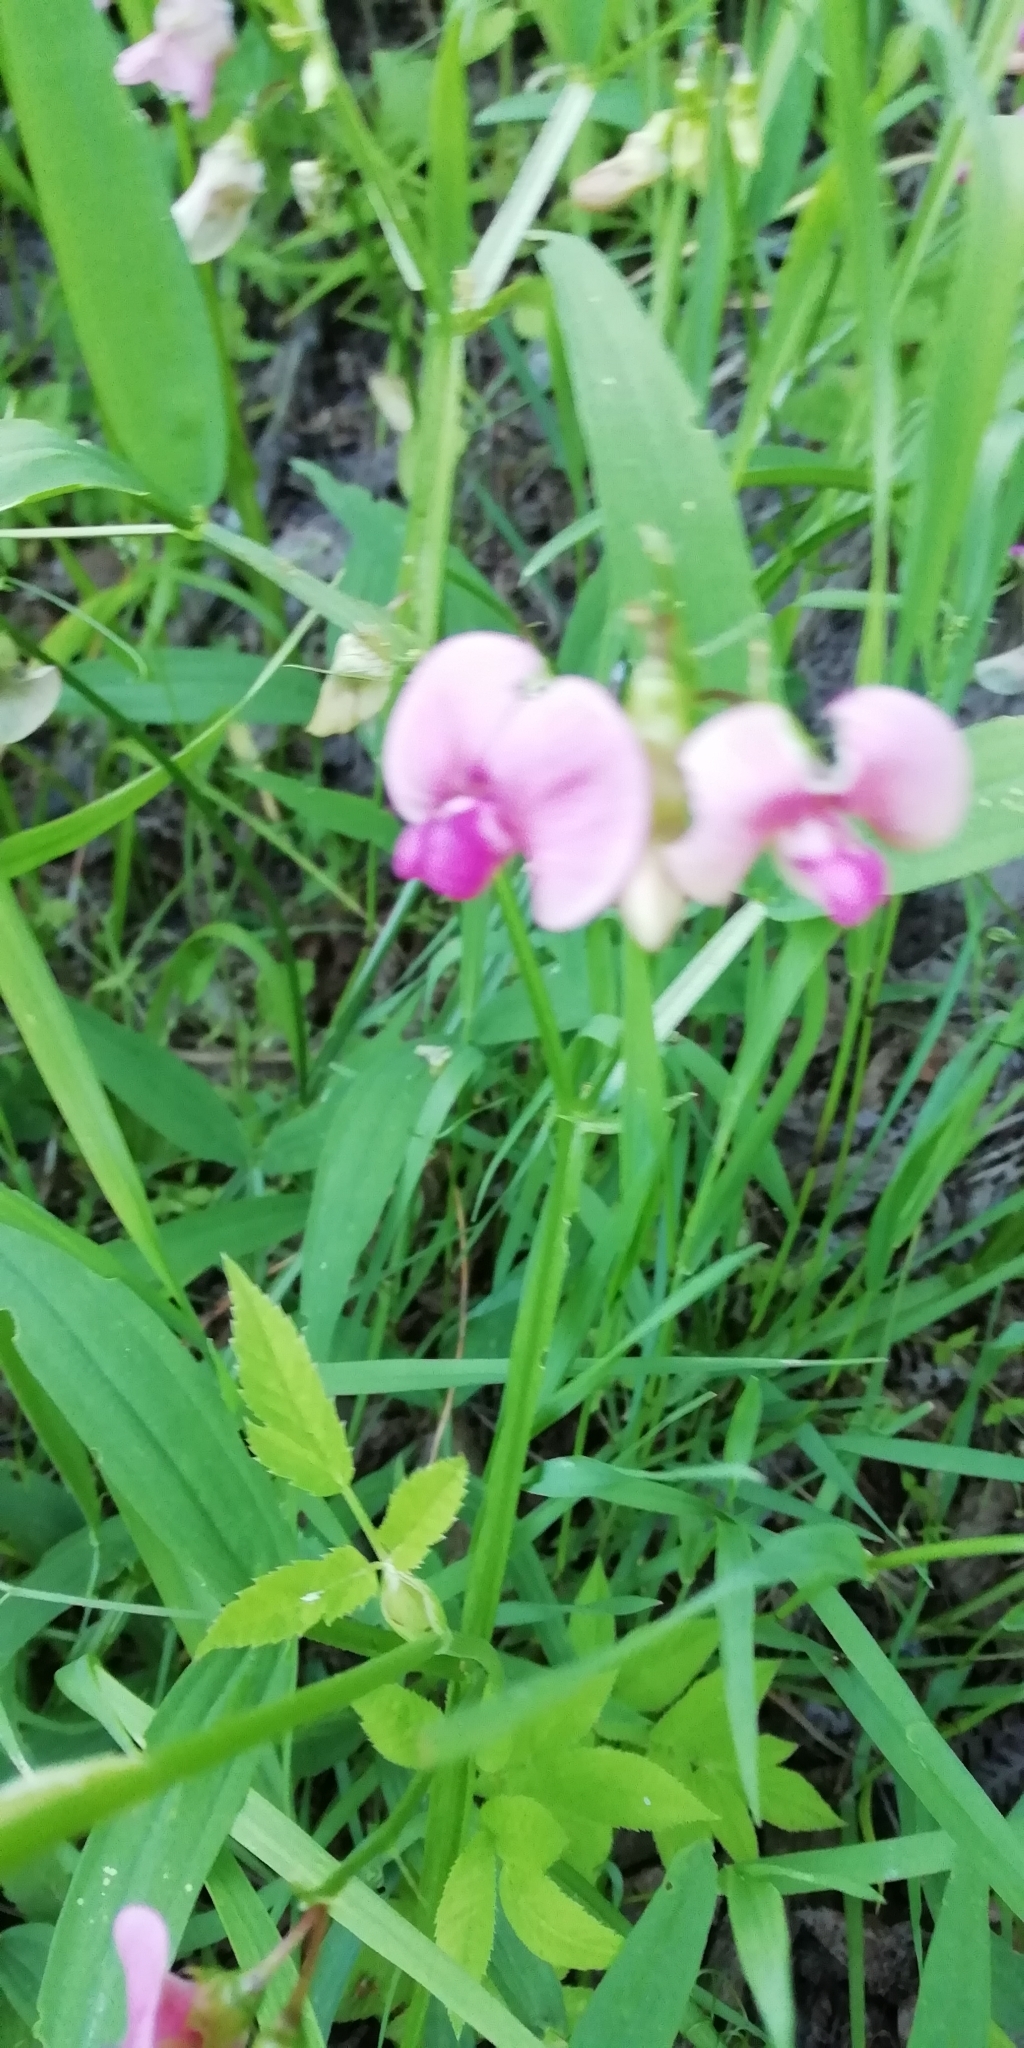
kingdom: Plantae
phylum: Tracheophyta
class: Magnoliopsida
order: Fabales
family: Fabaceae
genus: Lathyrus
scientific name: Lathyrus sylvestris
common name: Flat pea
